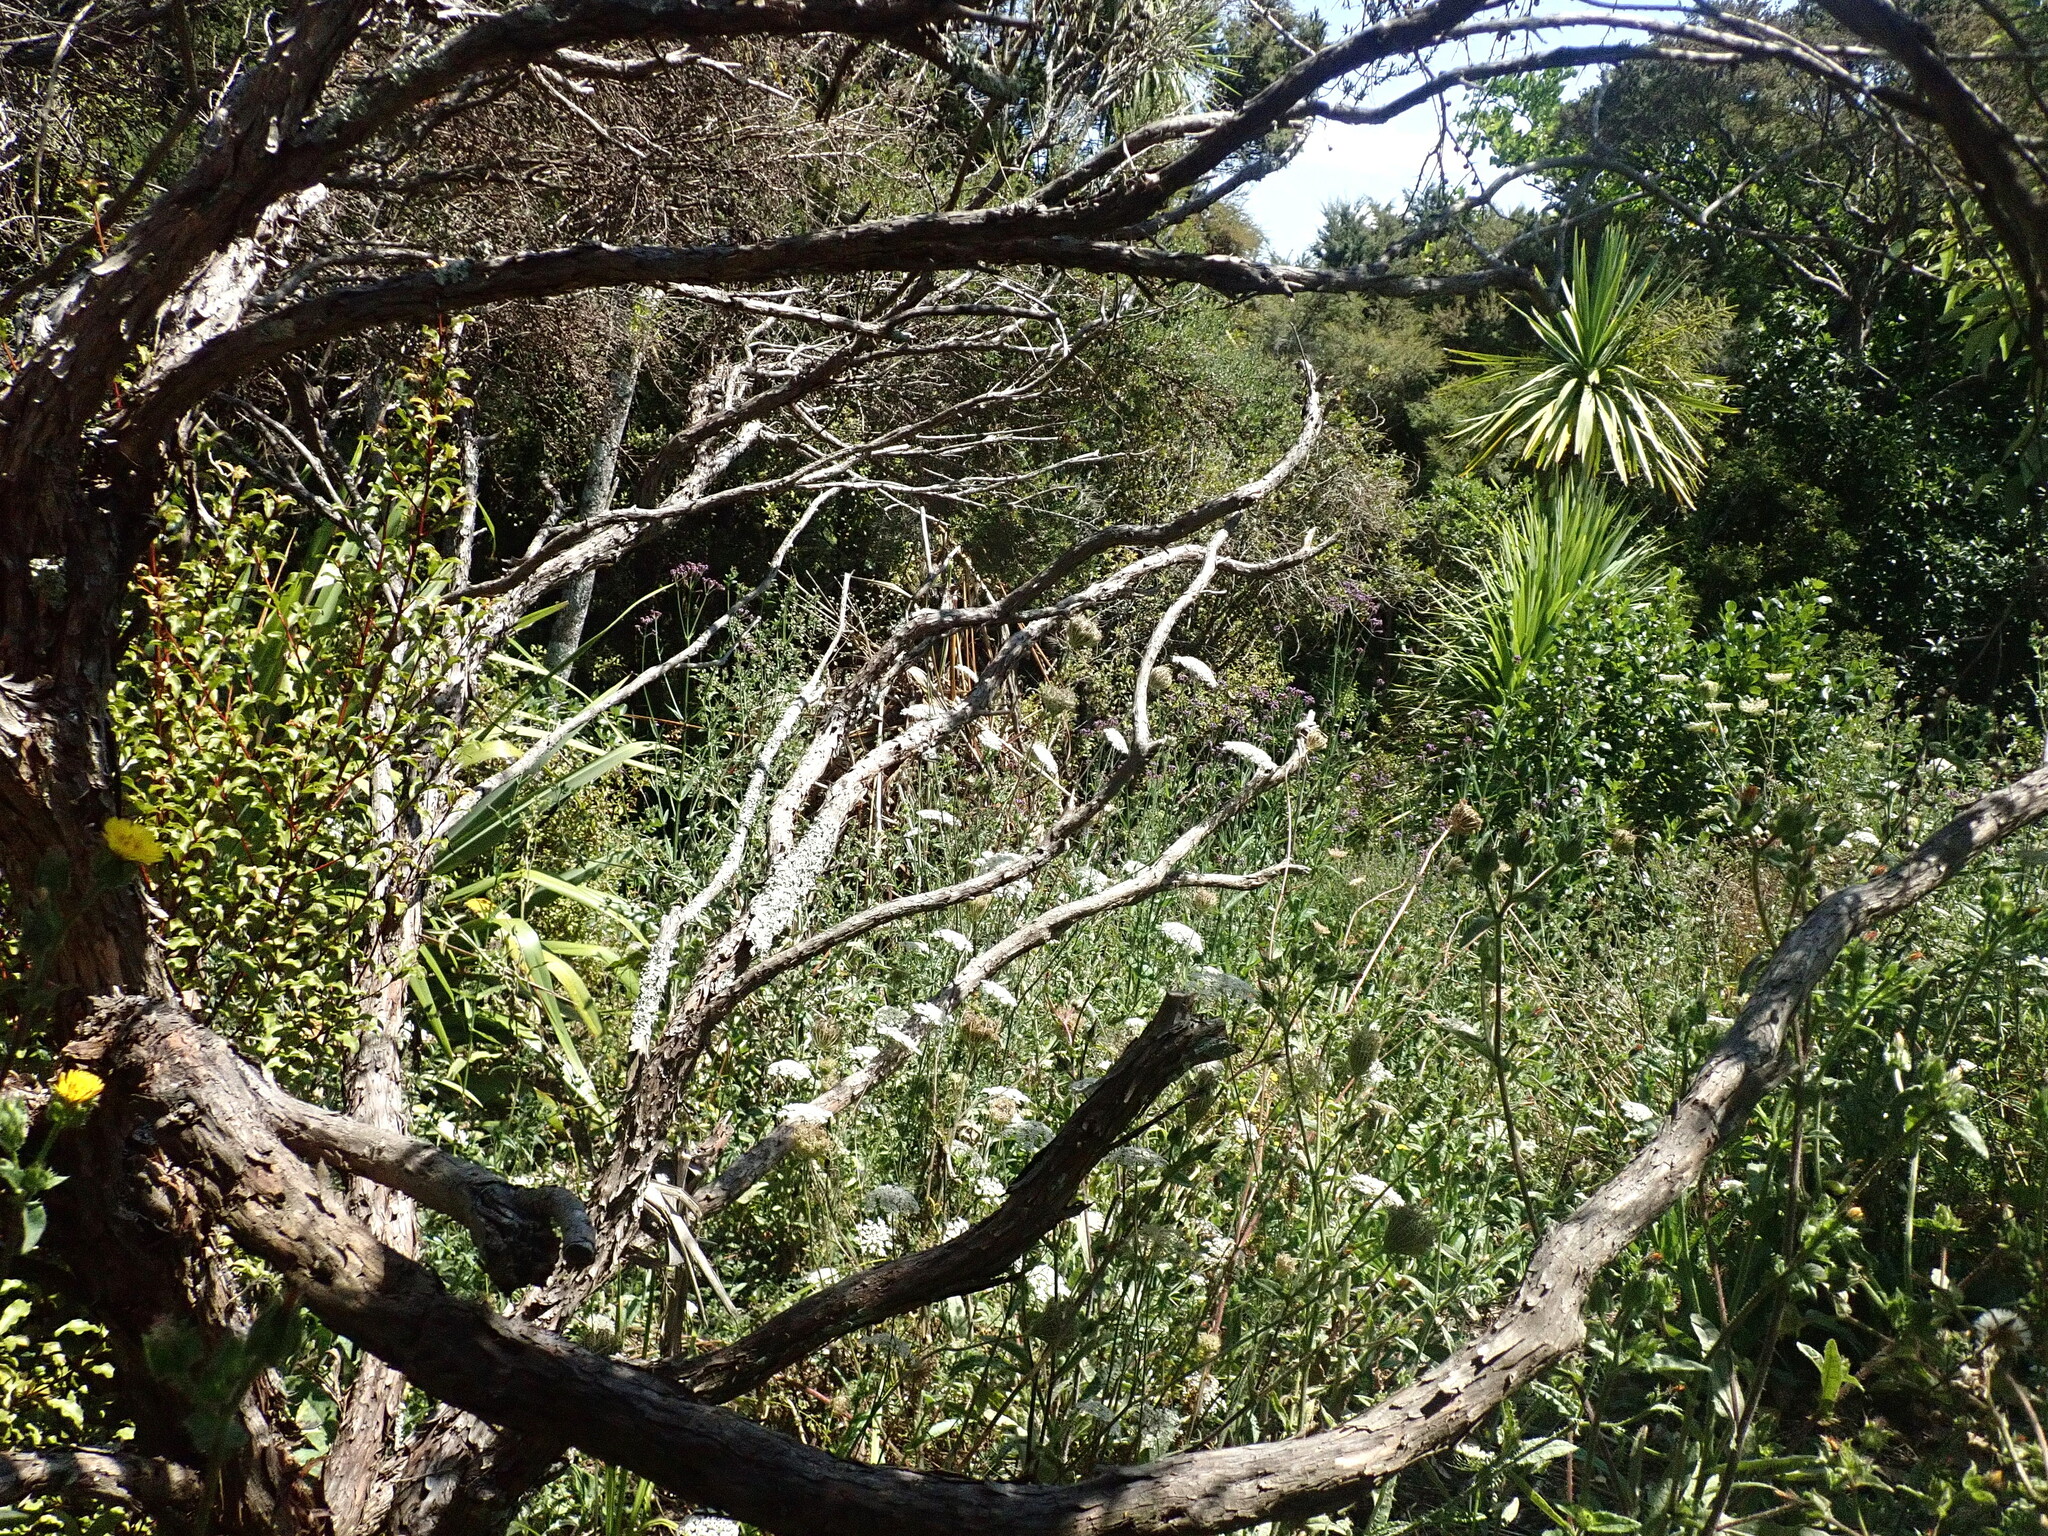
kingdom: Plantae
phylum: Tracheophyta
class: Magnoliopsida
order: Myrtales
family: Myrtaceae
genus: Leptospermum
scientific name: Leptospermum scoparium
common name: Broom tea-tree
